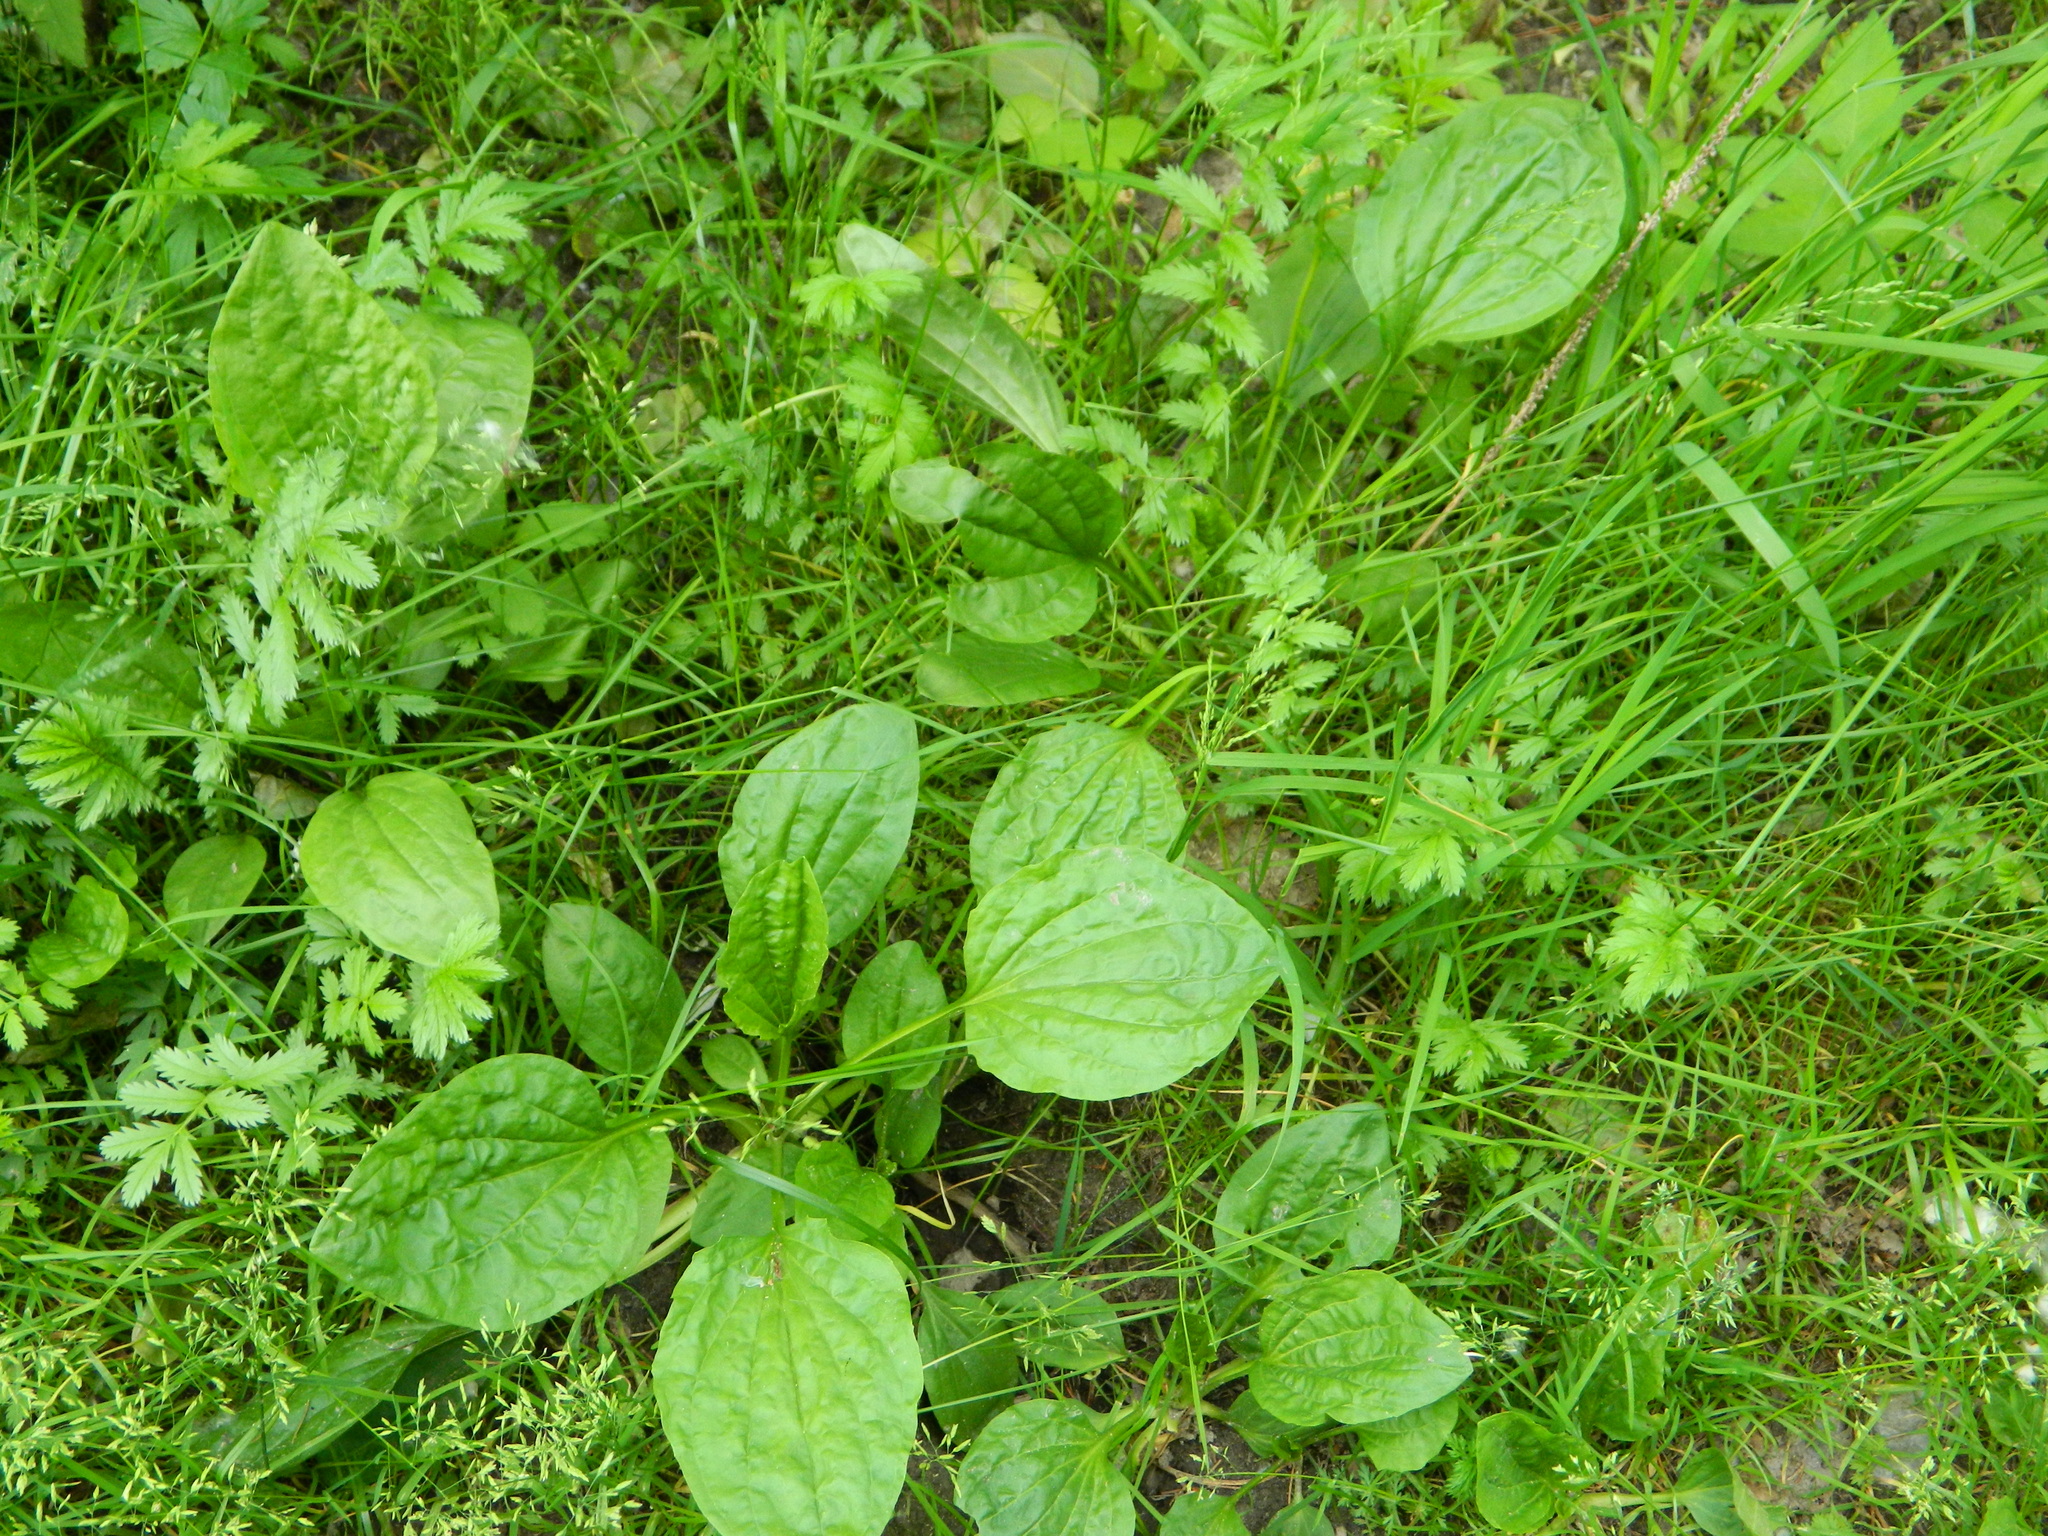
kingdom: Plantae
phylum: Tracheophyta
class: Magnoliopsida
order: Lamiales
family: Plantaginaceae
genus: Plantago
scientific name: Plantago major
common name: Common plantain
